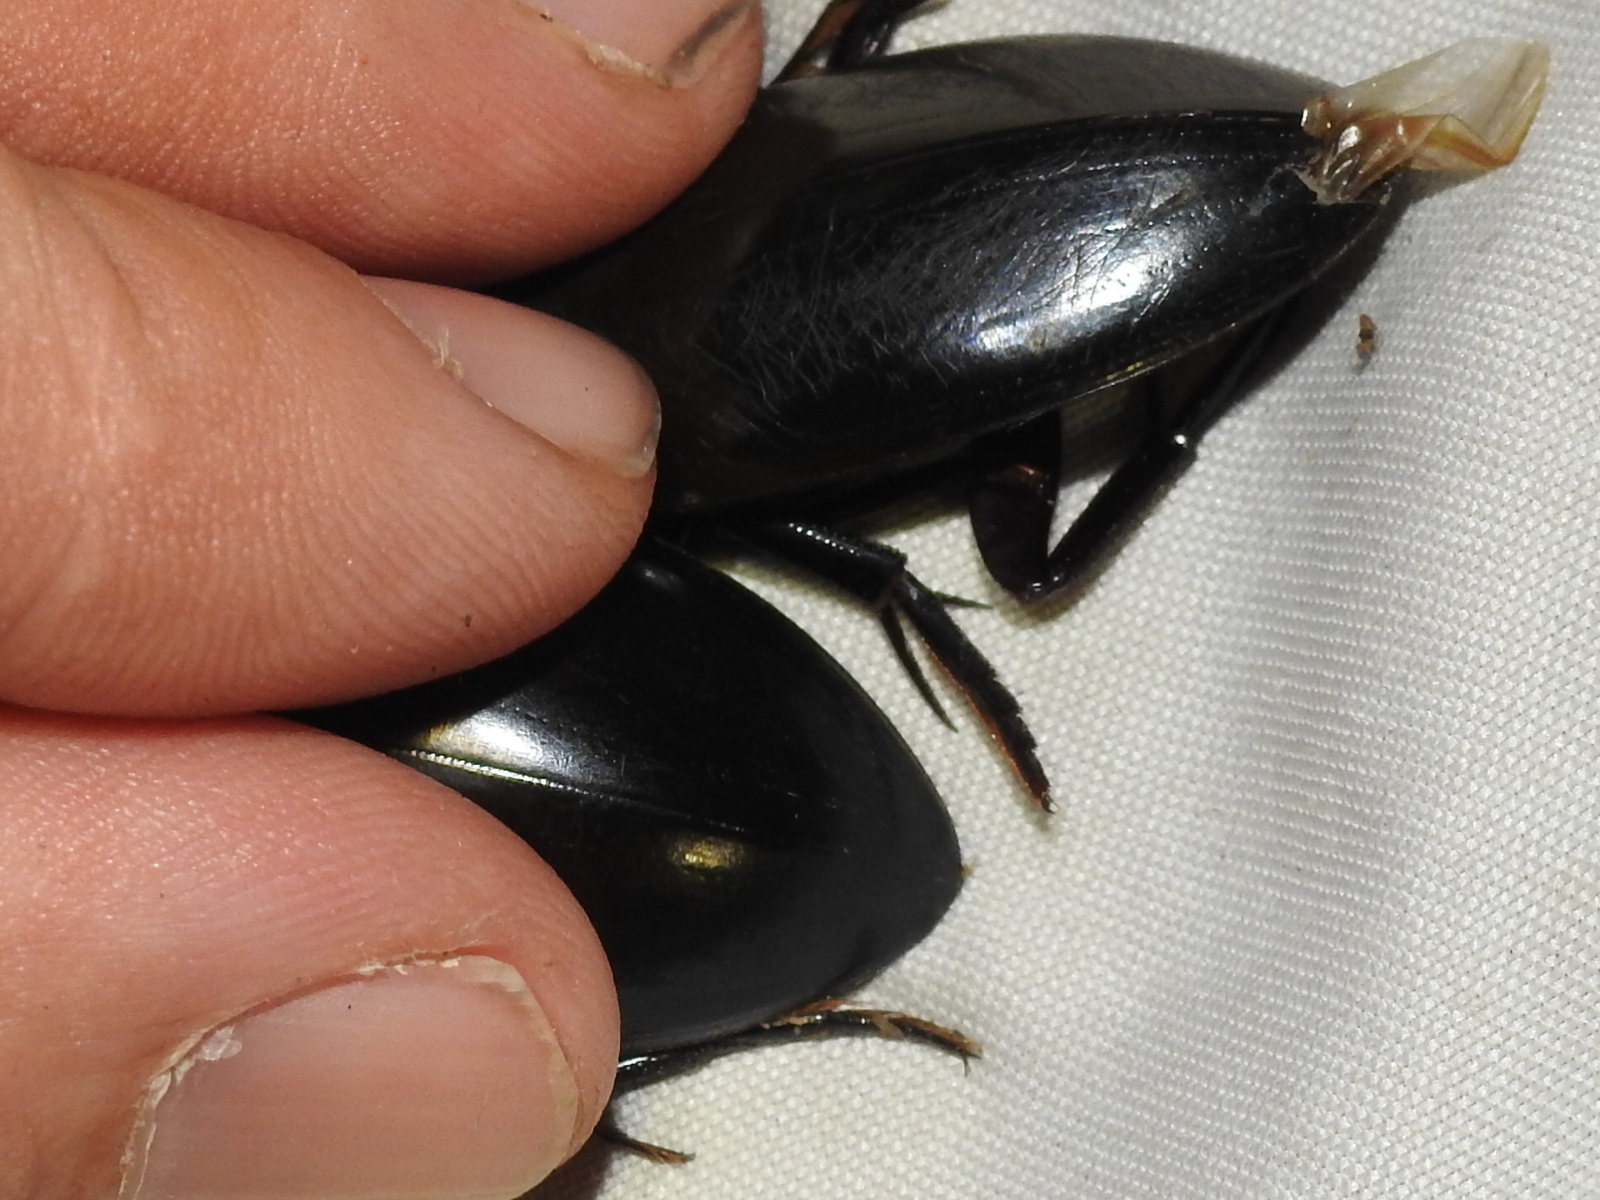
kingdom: Animalia
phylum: Arthropoda
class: Insecta
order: Coleoptera
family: Hydrophilidae
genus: Hydrophilus
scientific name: Hydrophilus ovatus
